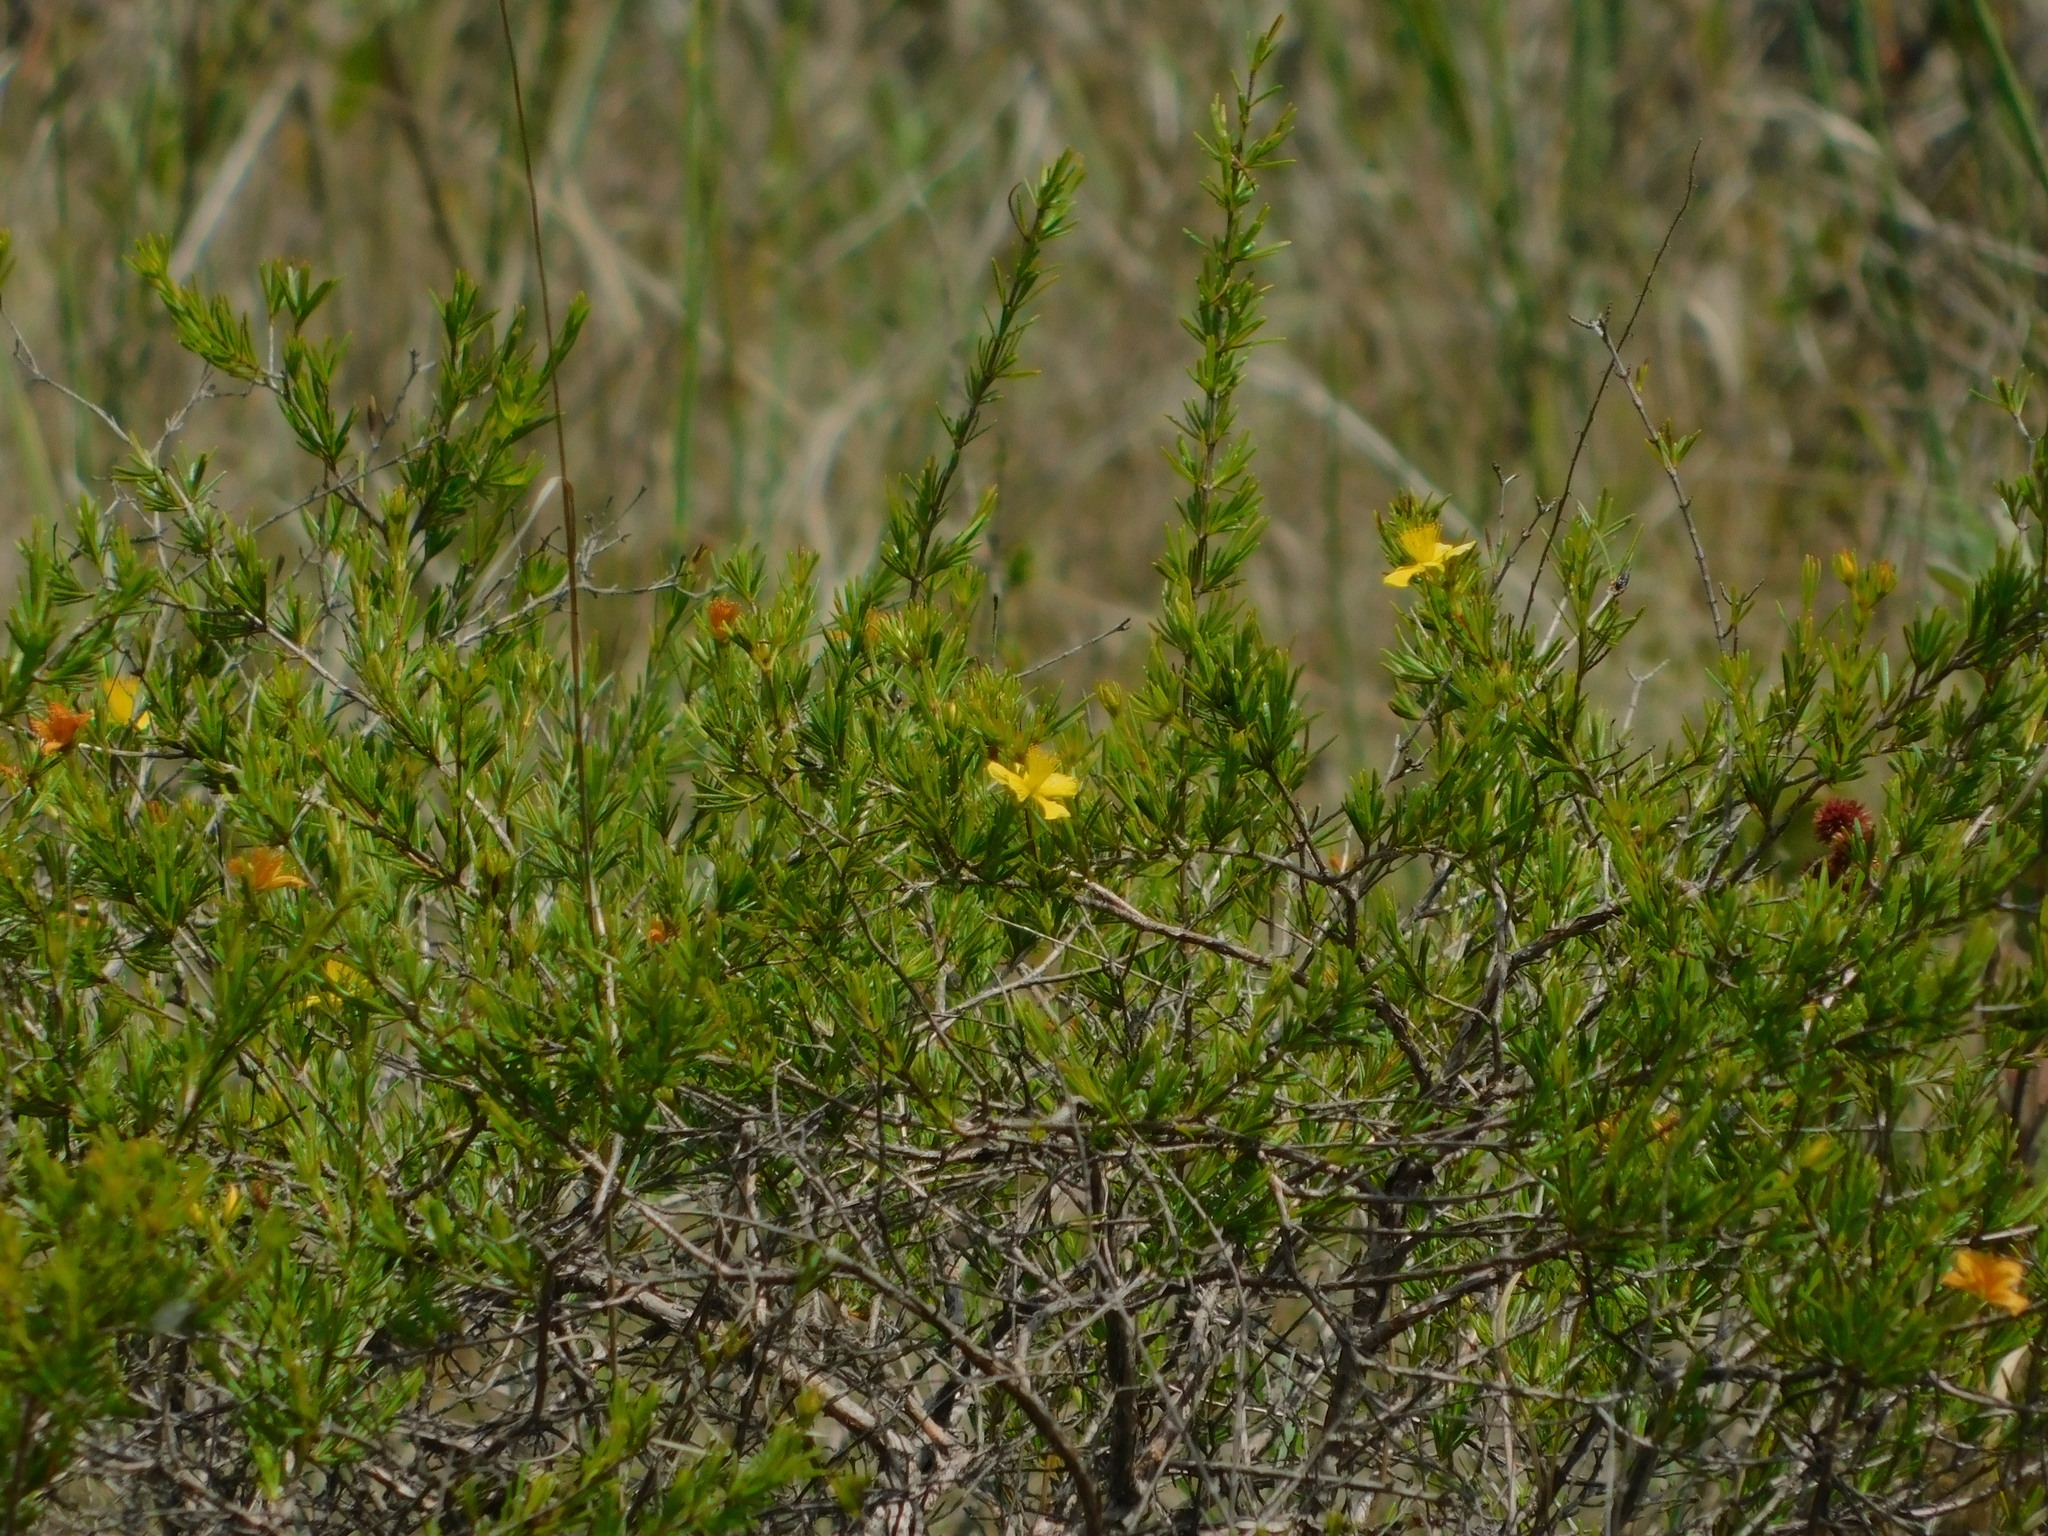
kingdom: Plantae
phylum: Tracheophyta
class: Magnoliopsida
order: Malpighiales
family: Hypericaceae
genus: Hypericum
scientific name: Hypericum fasciculatum
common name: Peelbark st. john's wort
